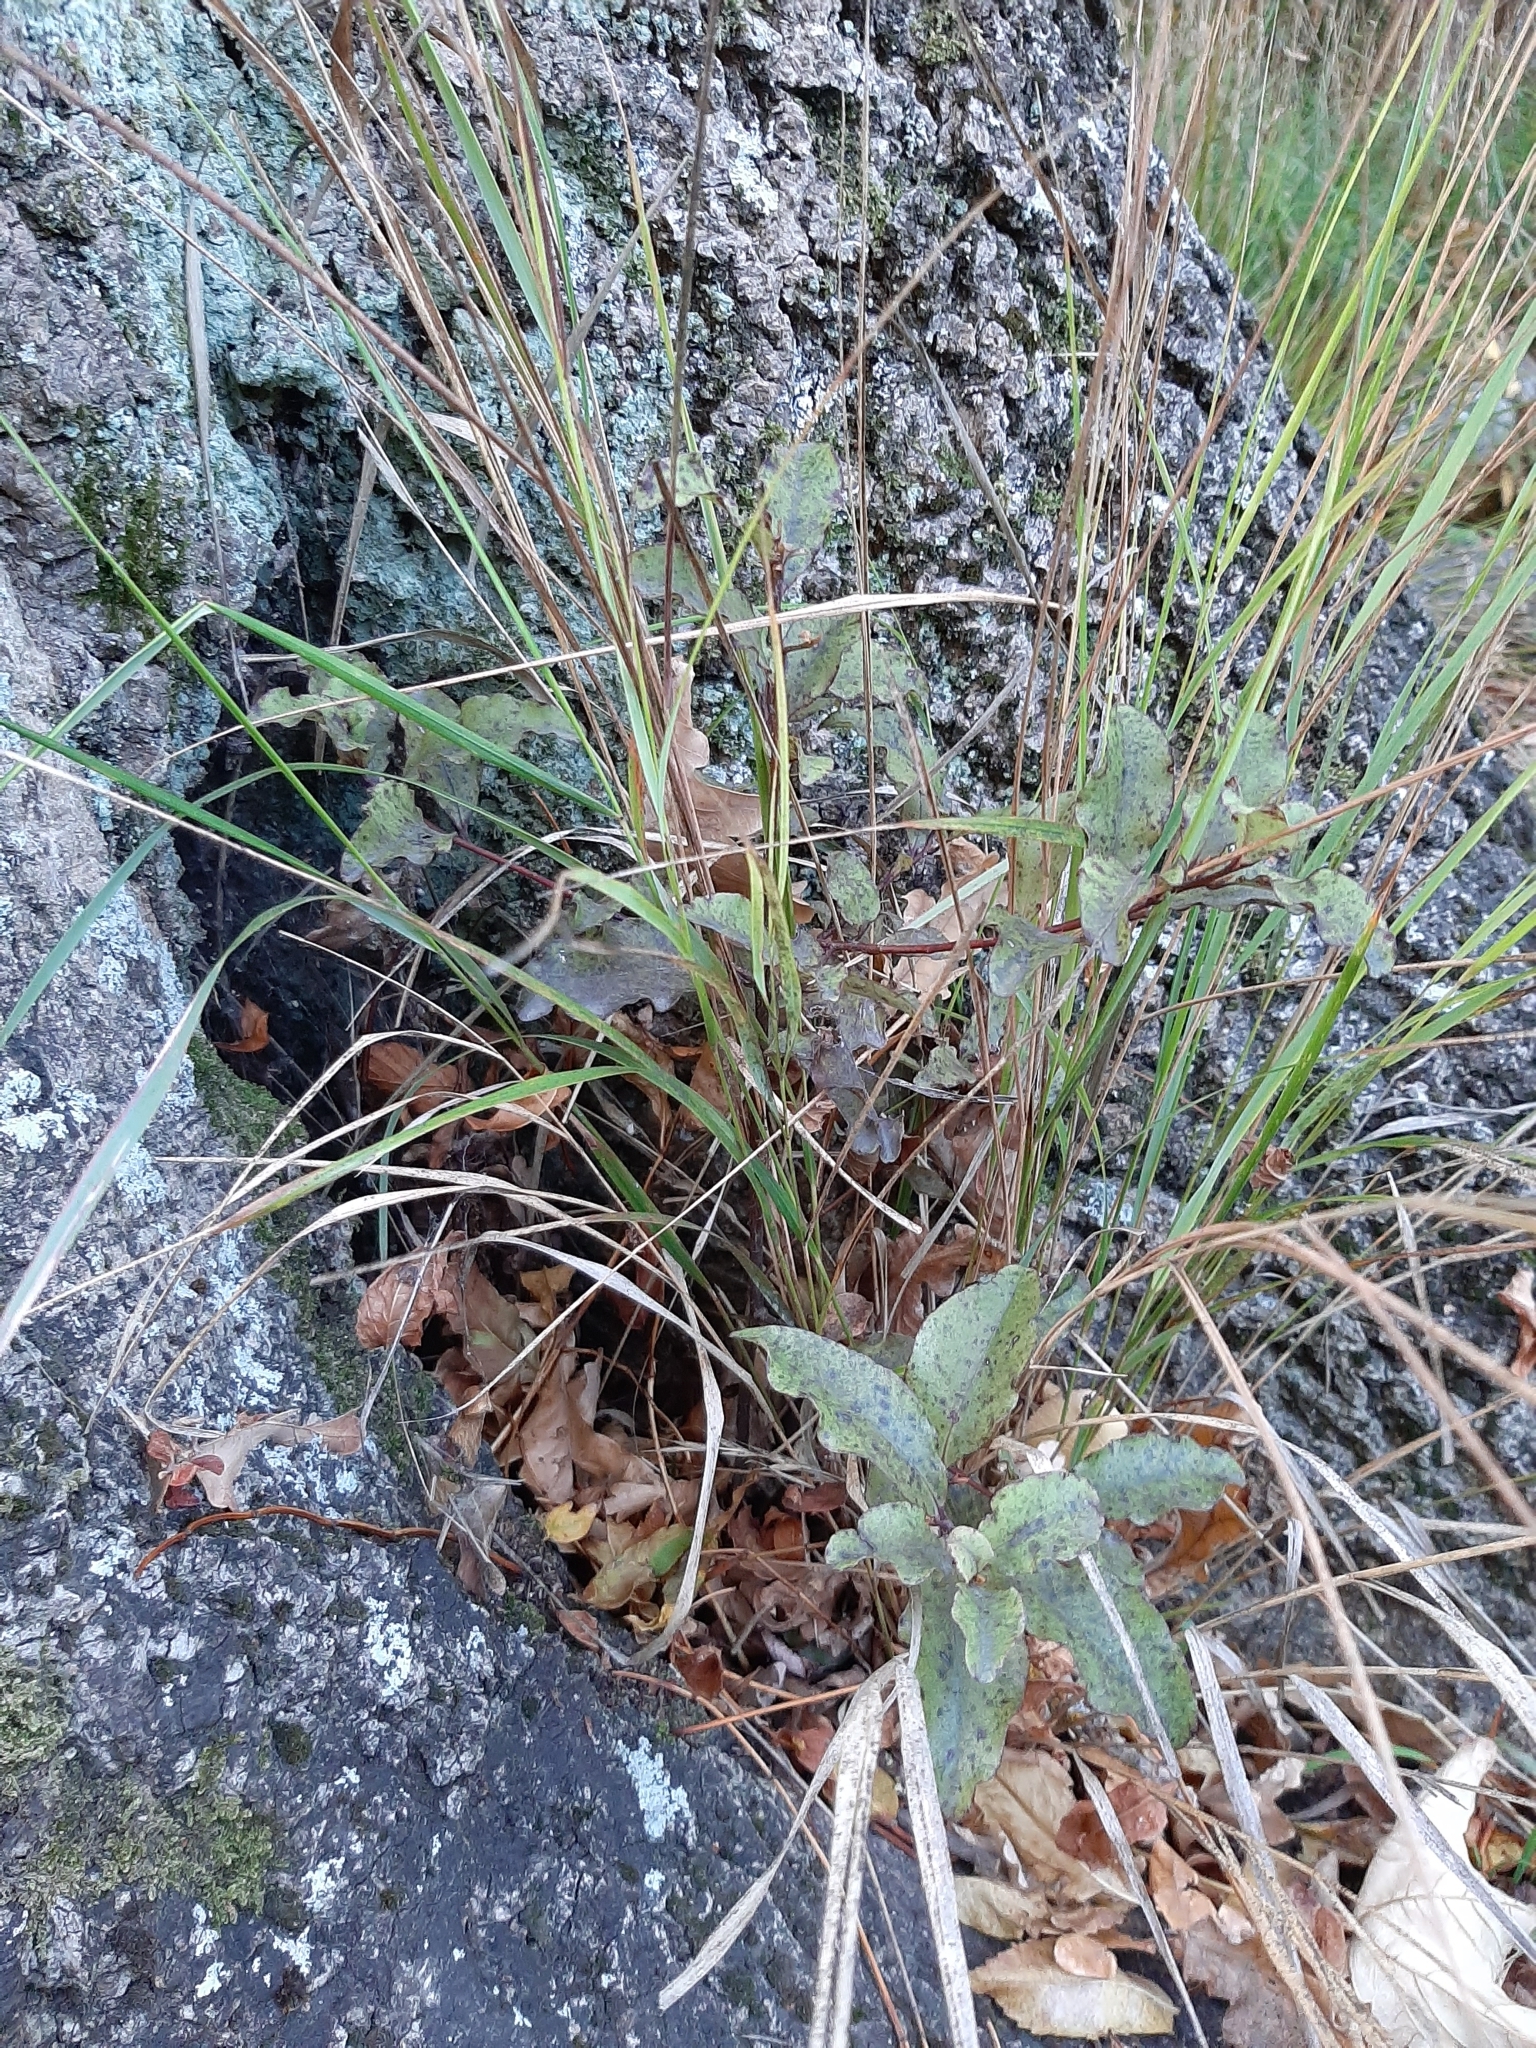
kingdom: Plantae
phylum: Tracheophyta
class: Magnoliopsida
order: Ericales
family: Primulaceae
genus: Myrsine
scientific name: Myrsine australis
